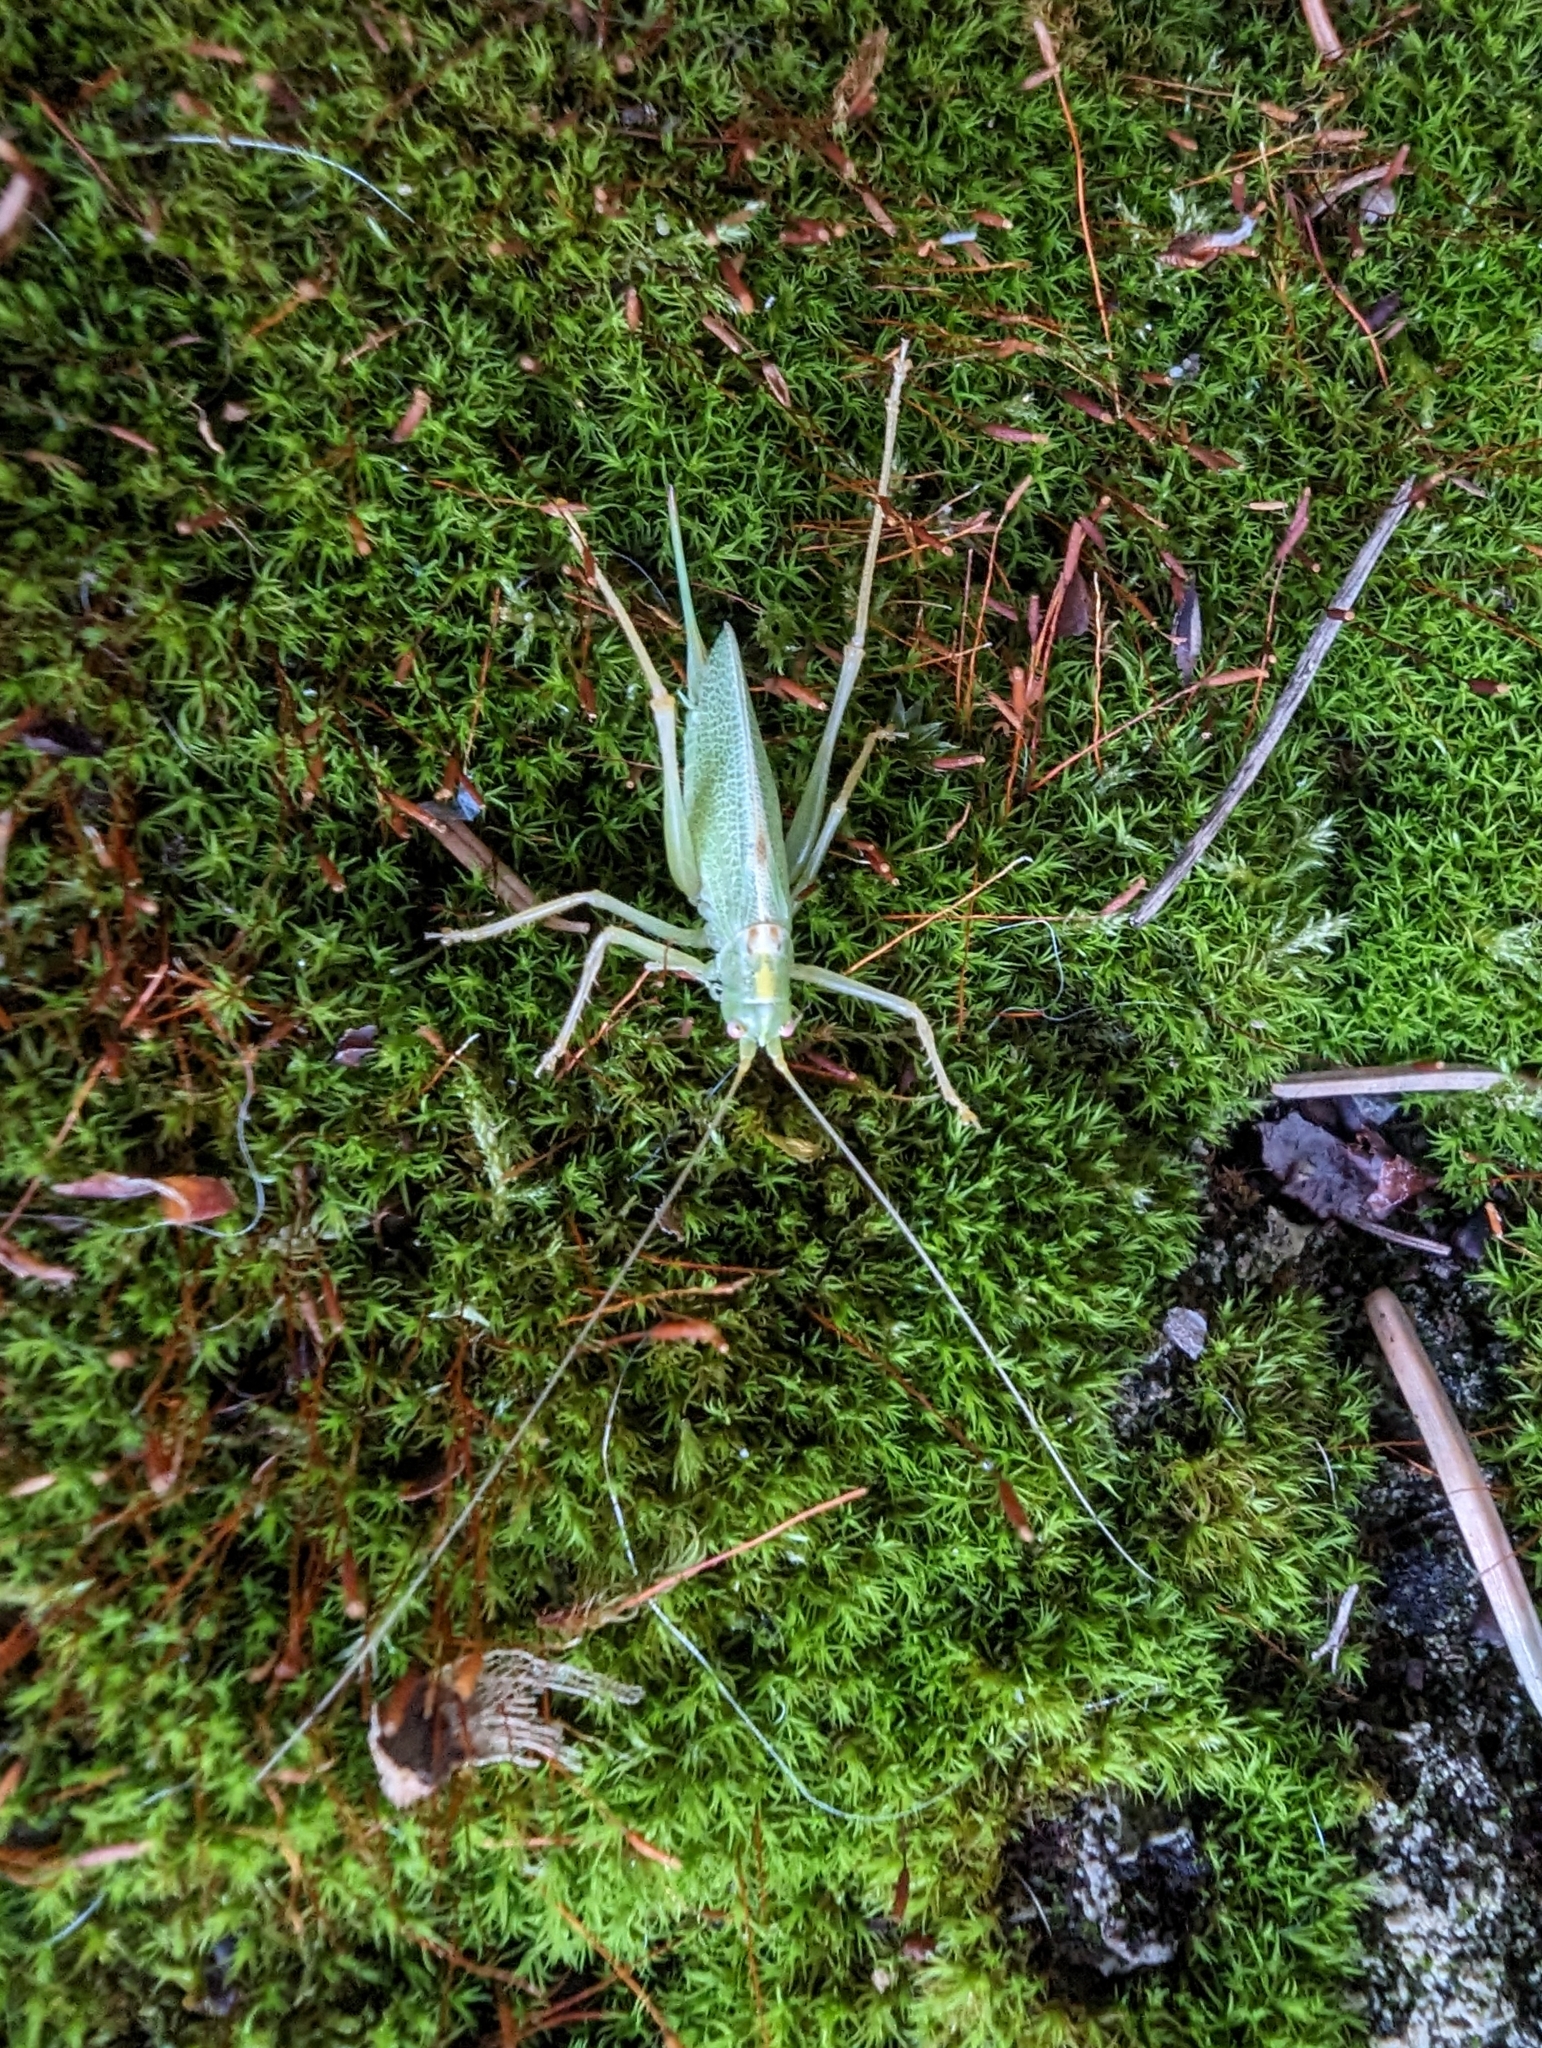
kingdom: Animalia
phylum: Arthropoda
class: Insecta
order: Orthoptera
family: Tettigoniidae
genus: Meconema
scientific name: Meconema thalassinum
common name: Oak bush-cricket
